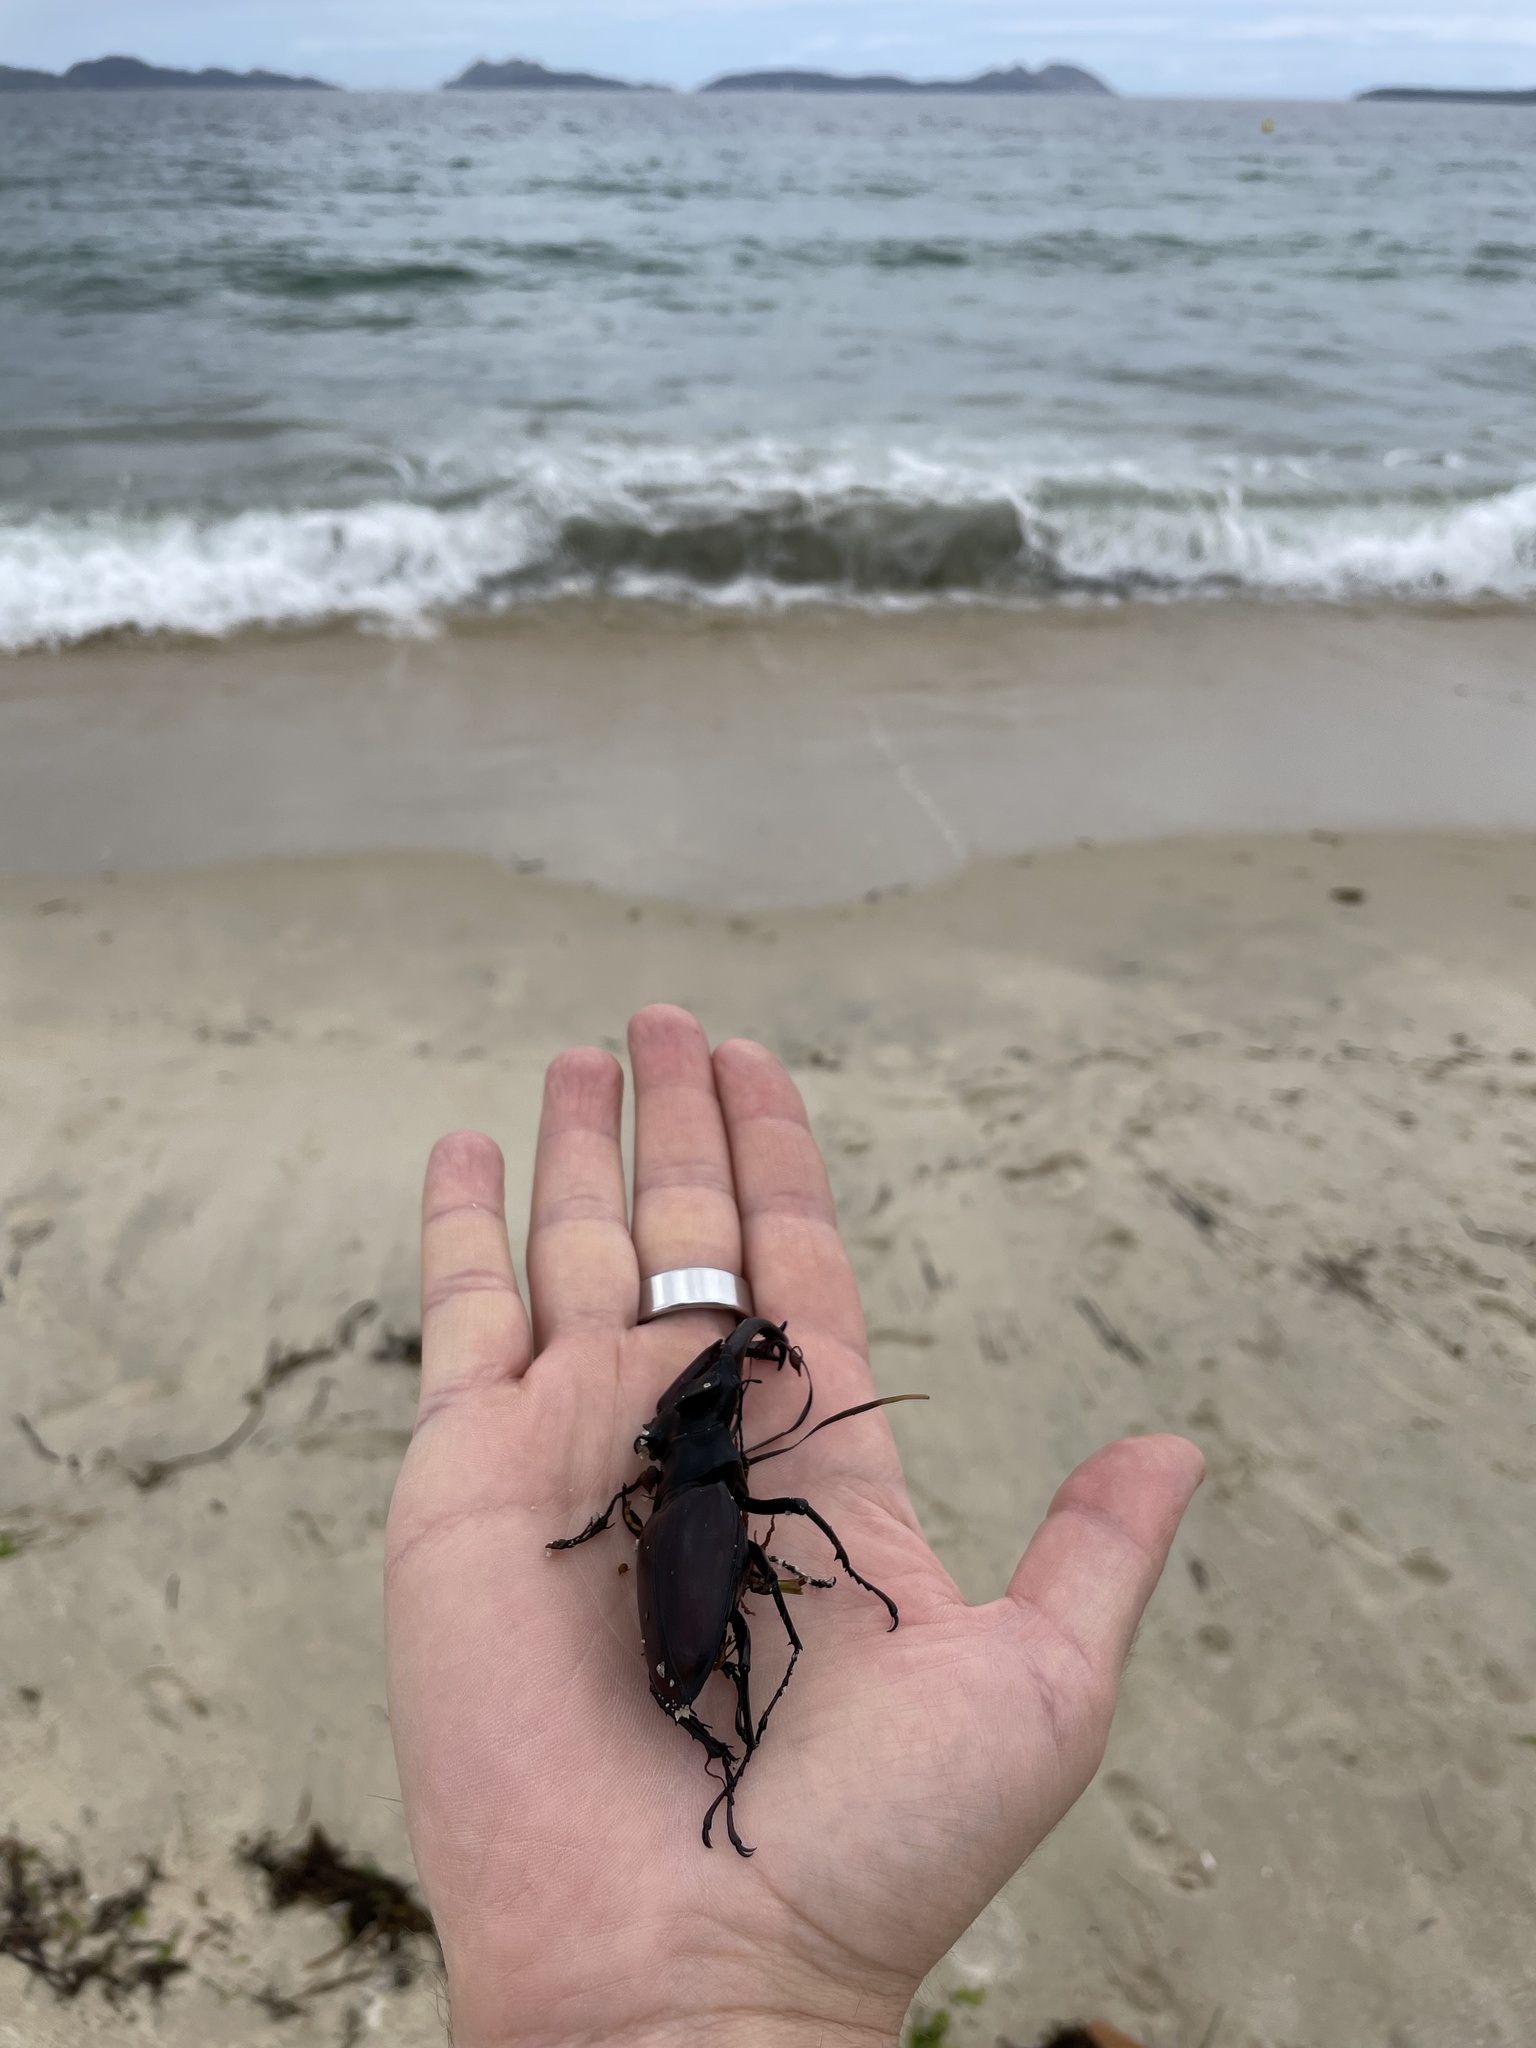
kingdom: Animalia
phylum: Arthropoda
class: Insecta
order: Coleoptera
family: Lucanidae
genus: Lucanus
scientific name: Lucanus cervus
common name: Stag beetle
